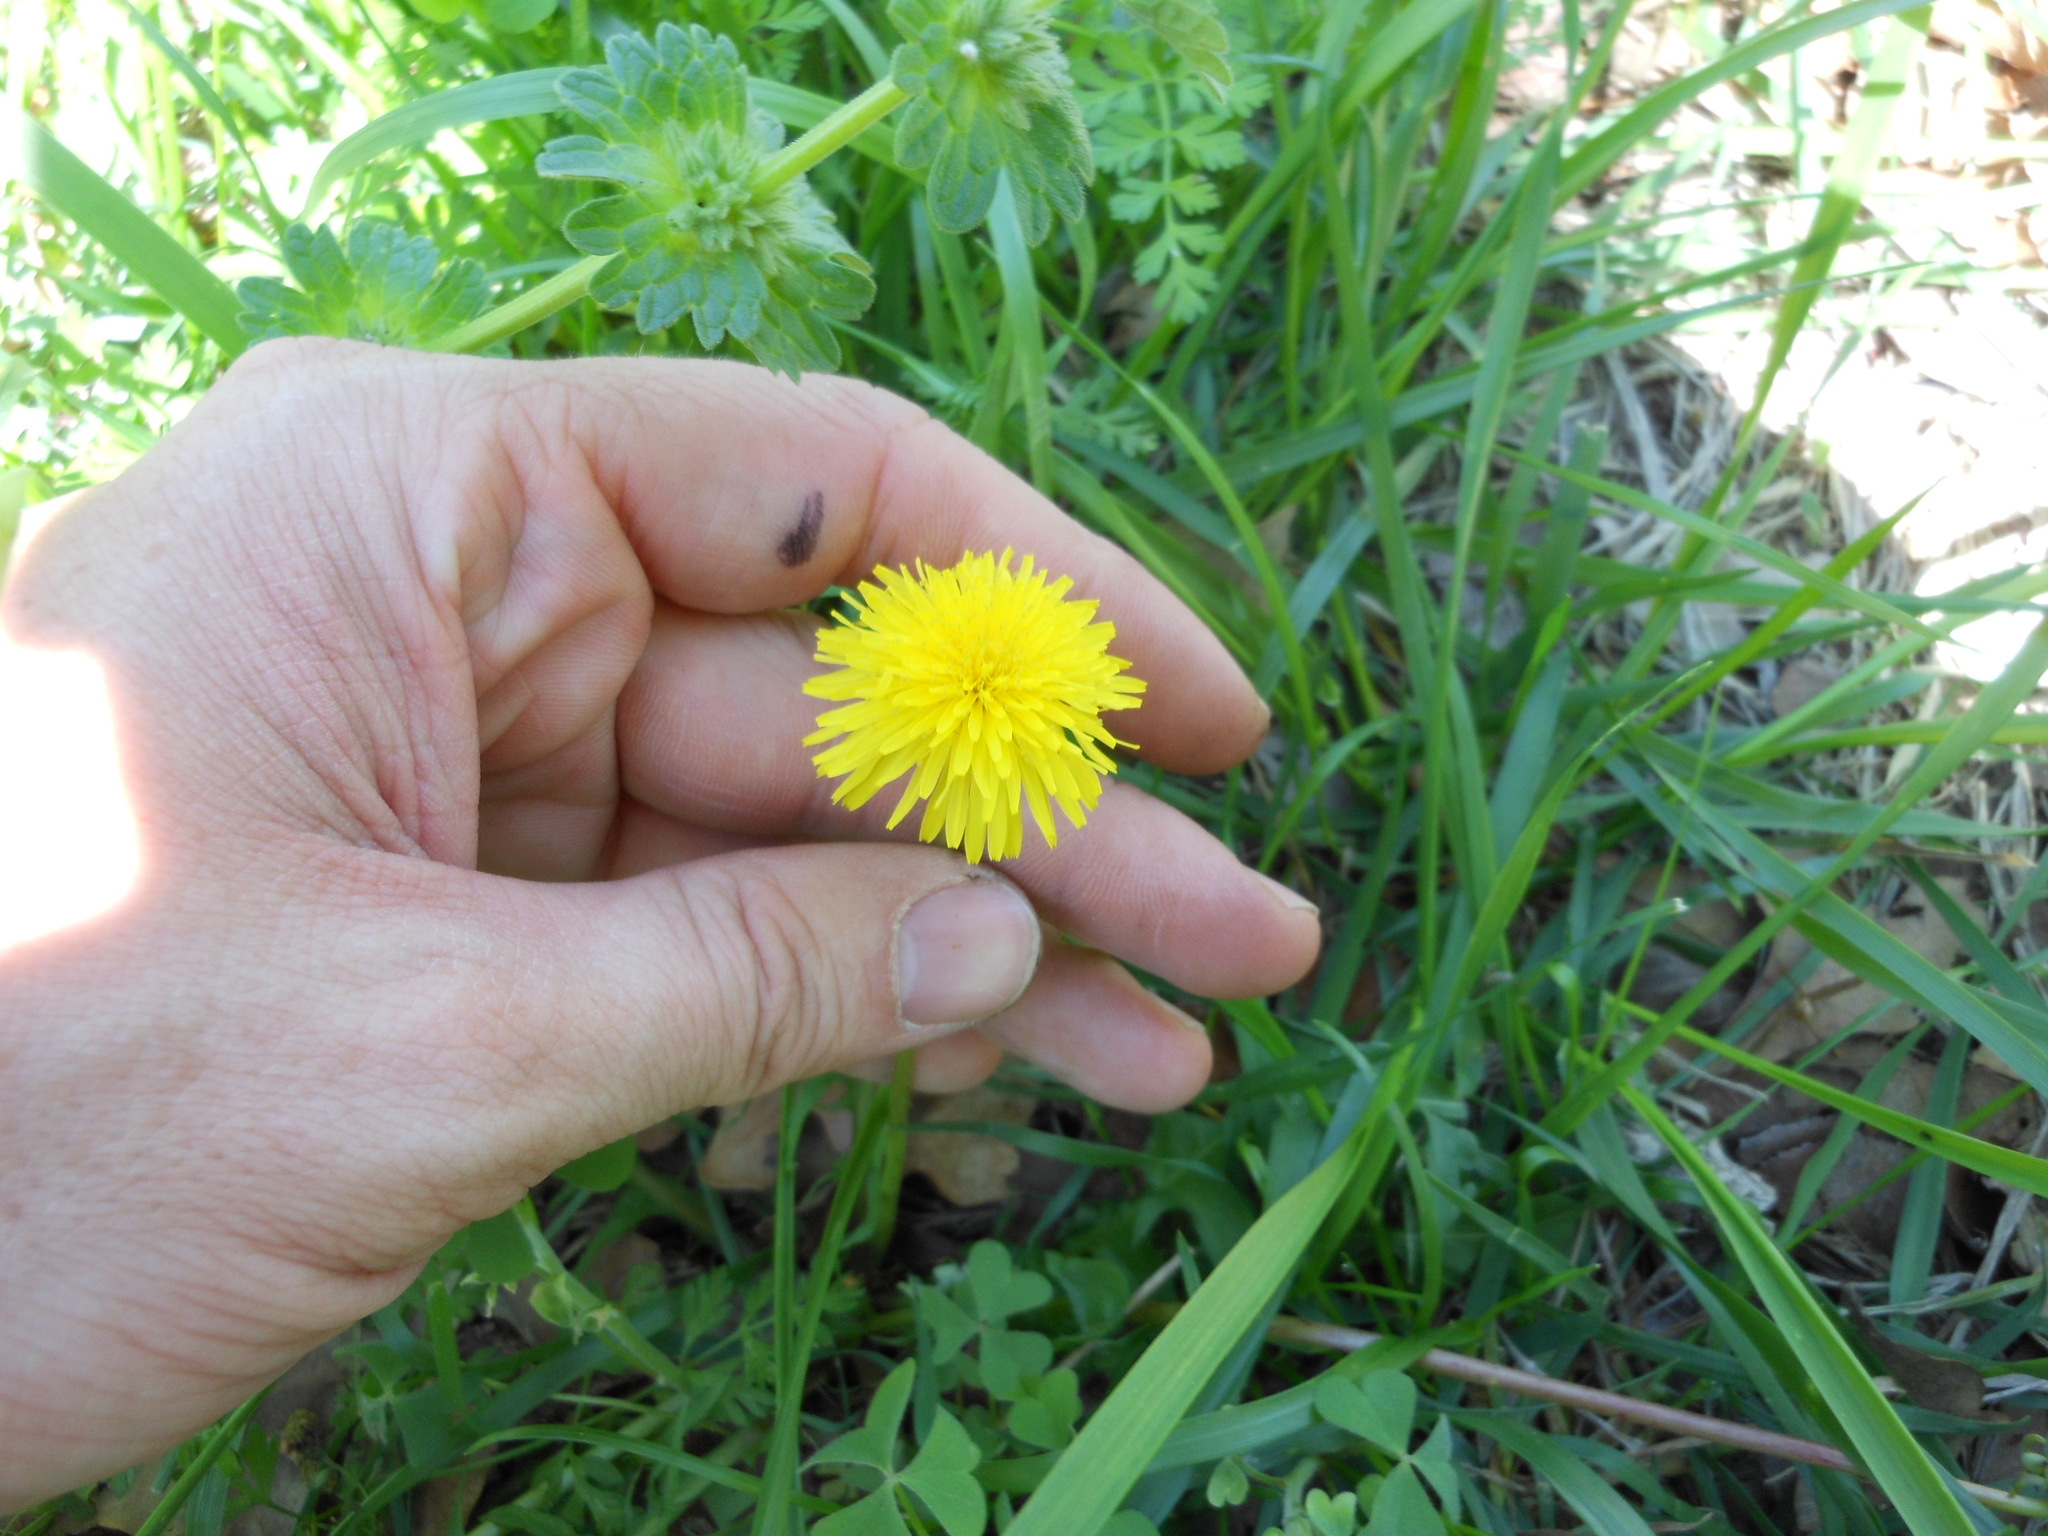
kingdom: Plantae
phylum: Tracheophyta
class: Magnoliopsida
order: Asterales
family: Asteraceae
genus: Taraxacum
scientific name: Taraxacum officinale
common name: Common dandelion
